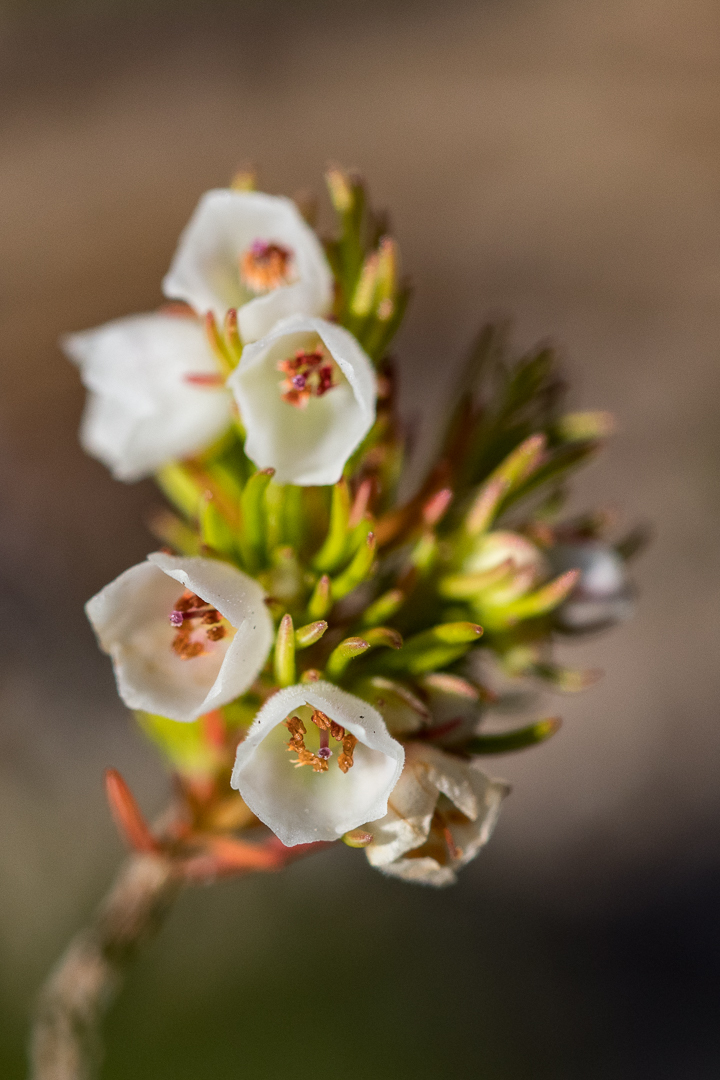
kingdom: Plantae
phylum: Tracheophyta
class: Magnoliopsida
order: Ericales
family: Ericaceae
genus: Erica
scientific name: Erica aemula
